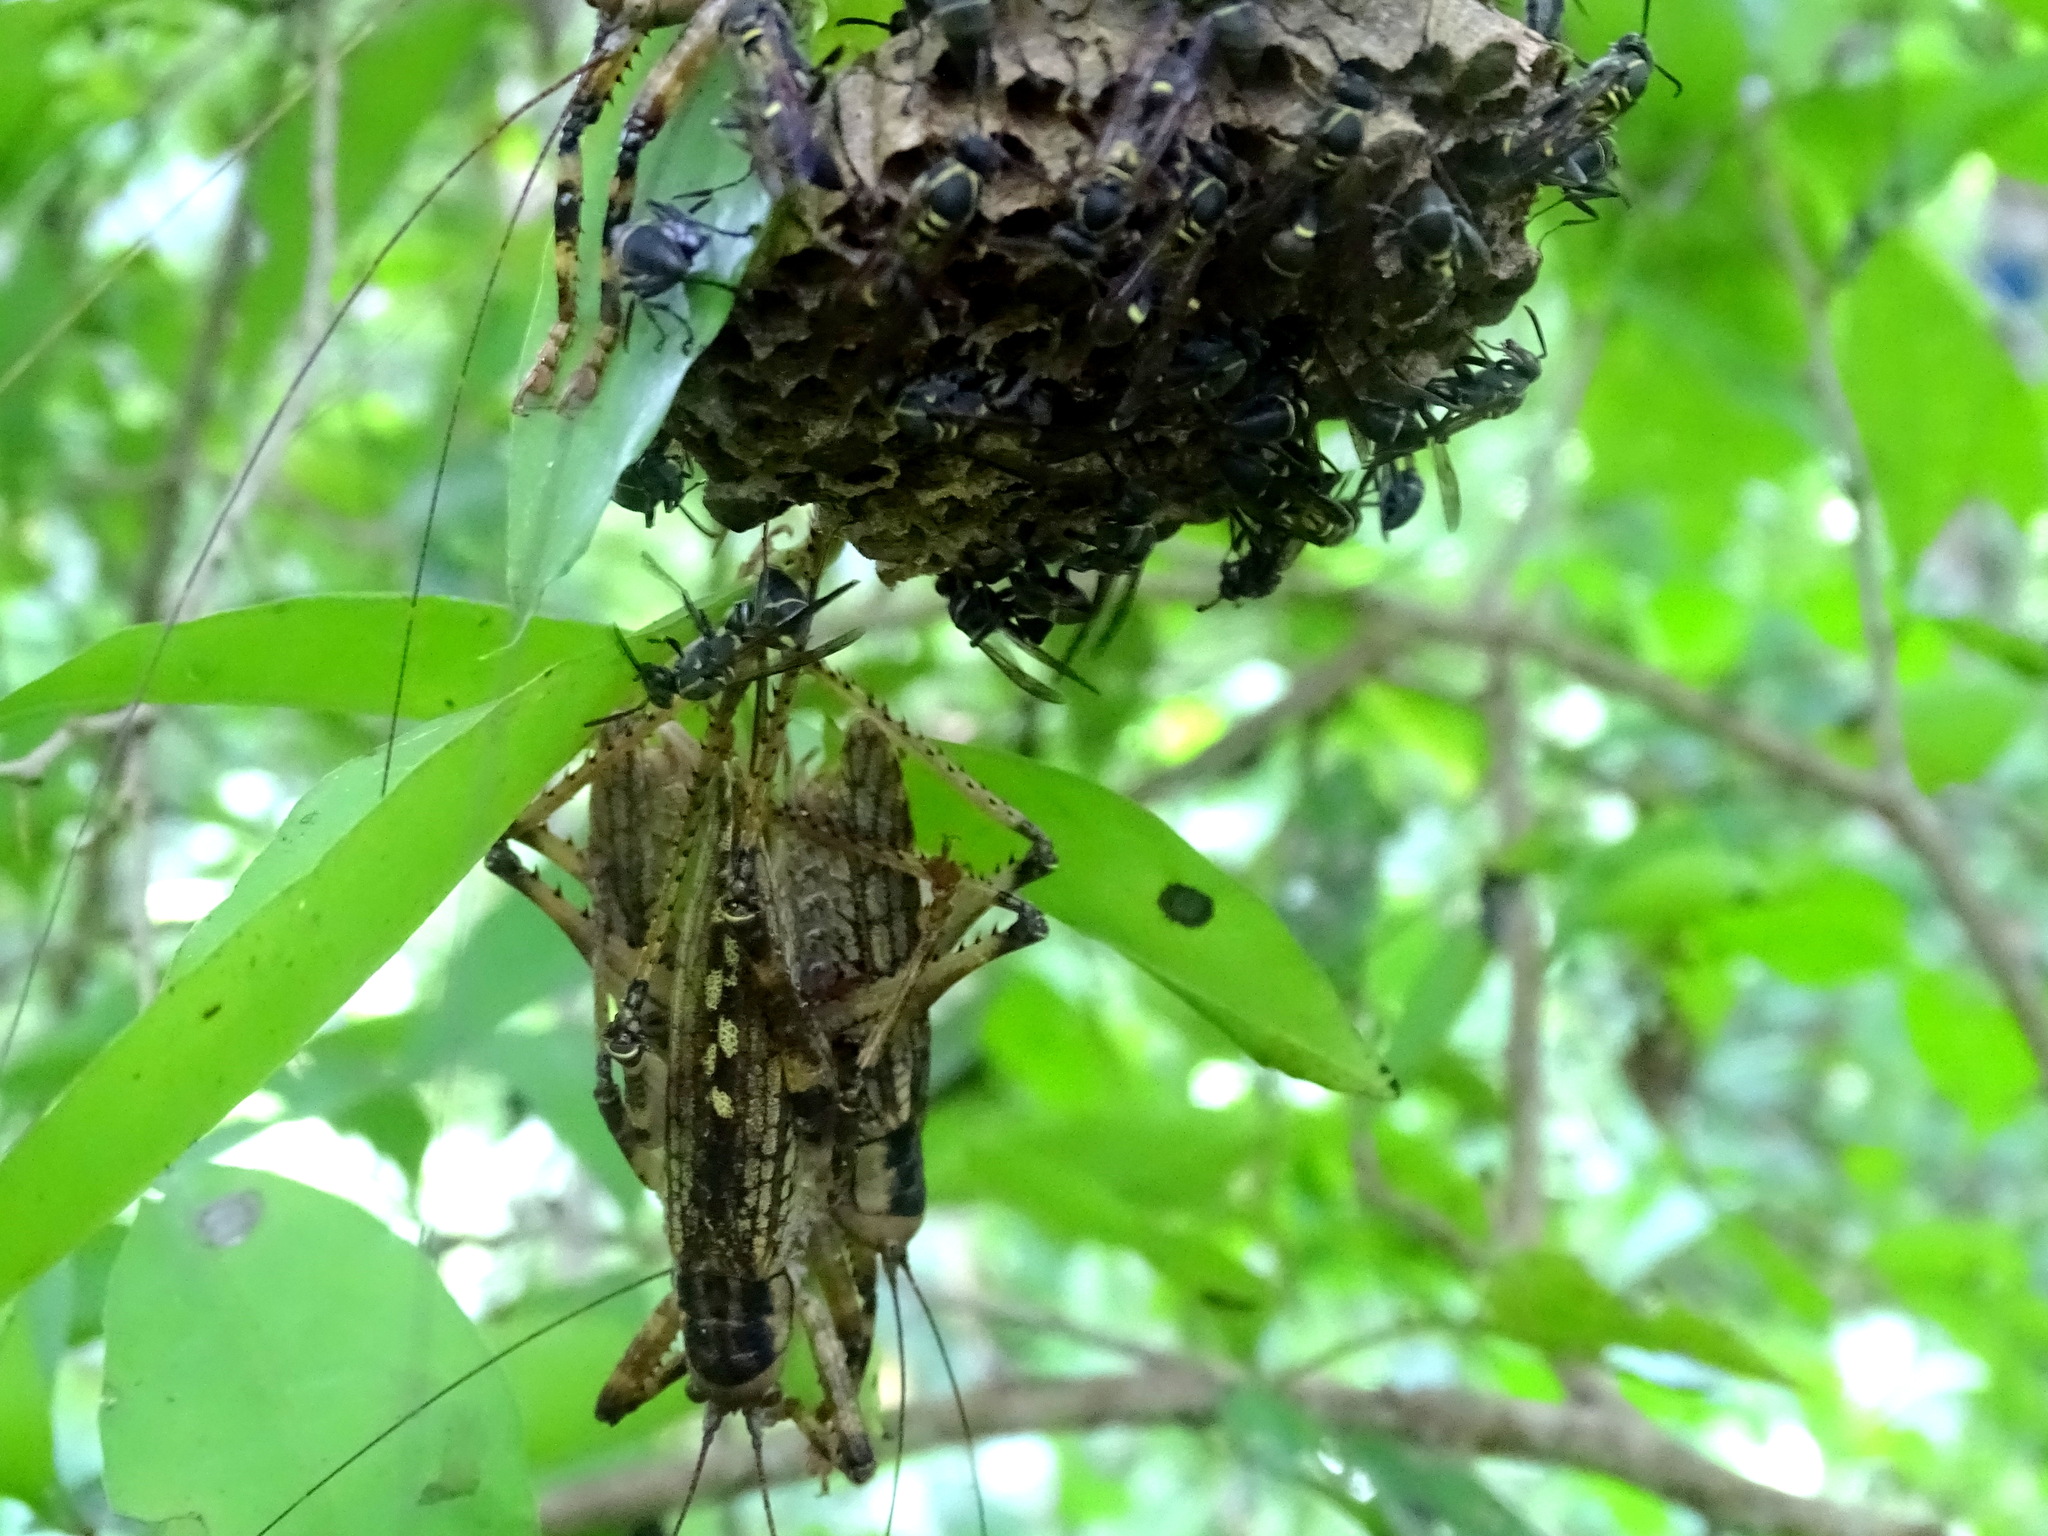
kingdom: Animalia
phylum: Arthropoda
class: Insecta
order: Orthoptera
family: Tettigoniidae
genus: Ancistrocercus
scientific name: Ancistrocercus circumdatus
